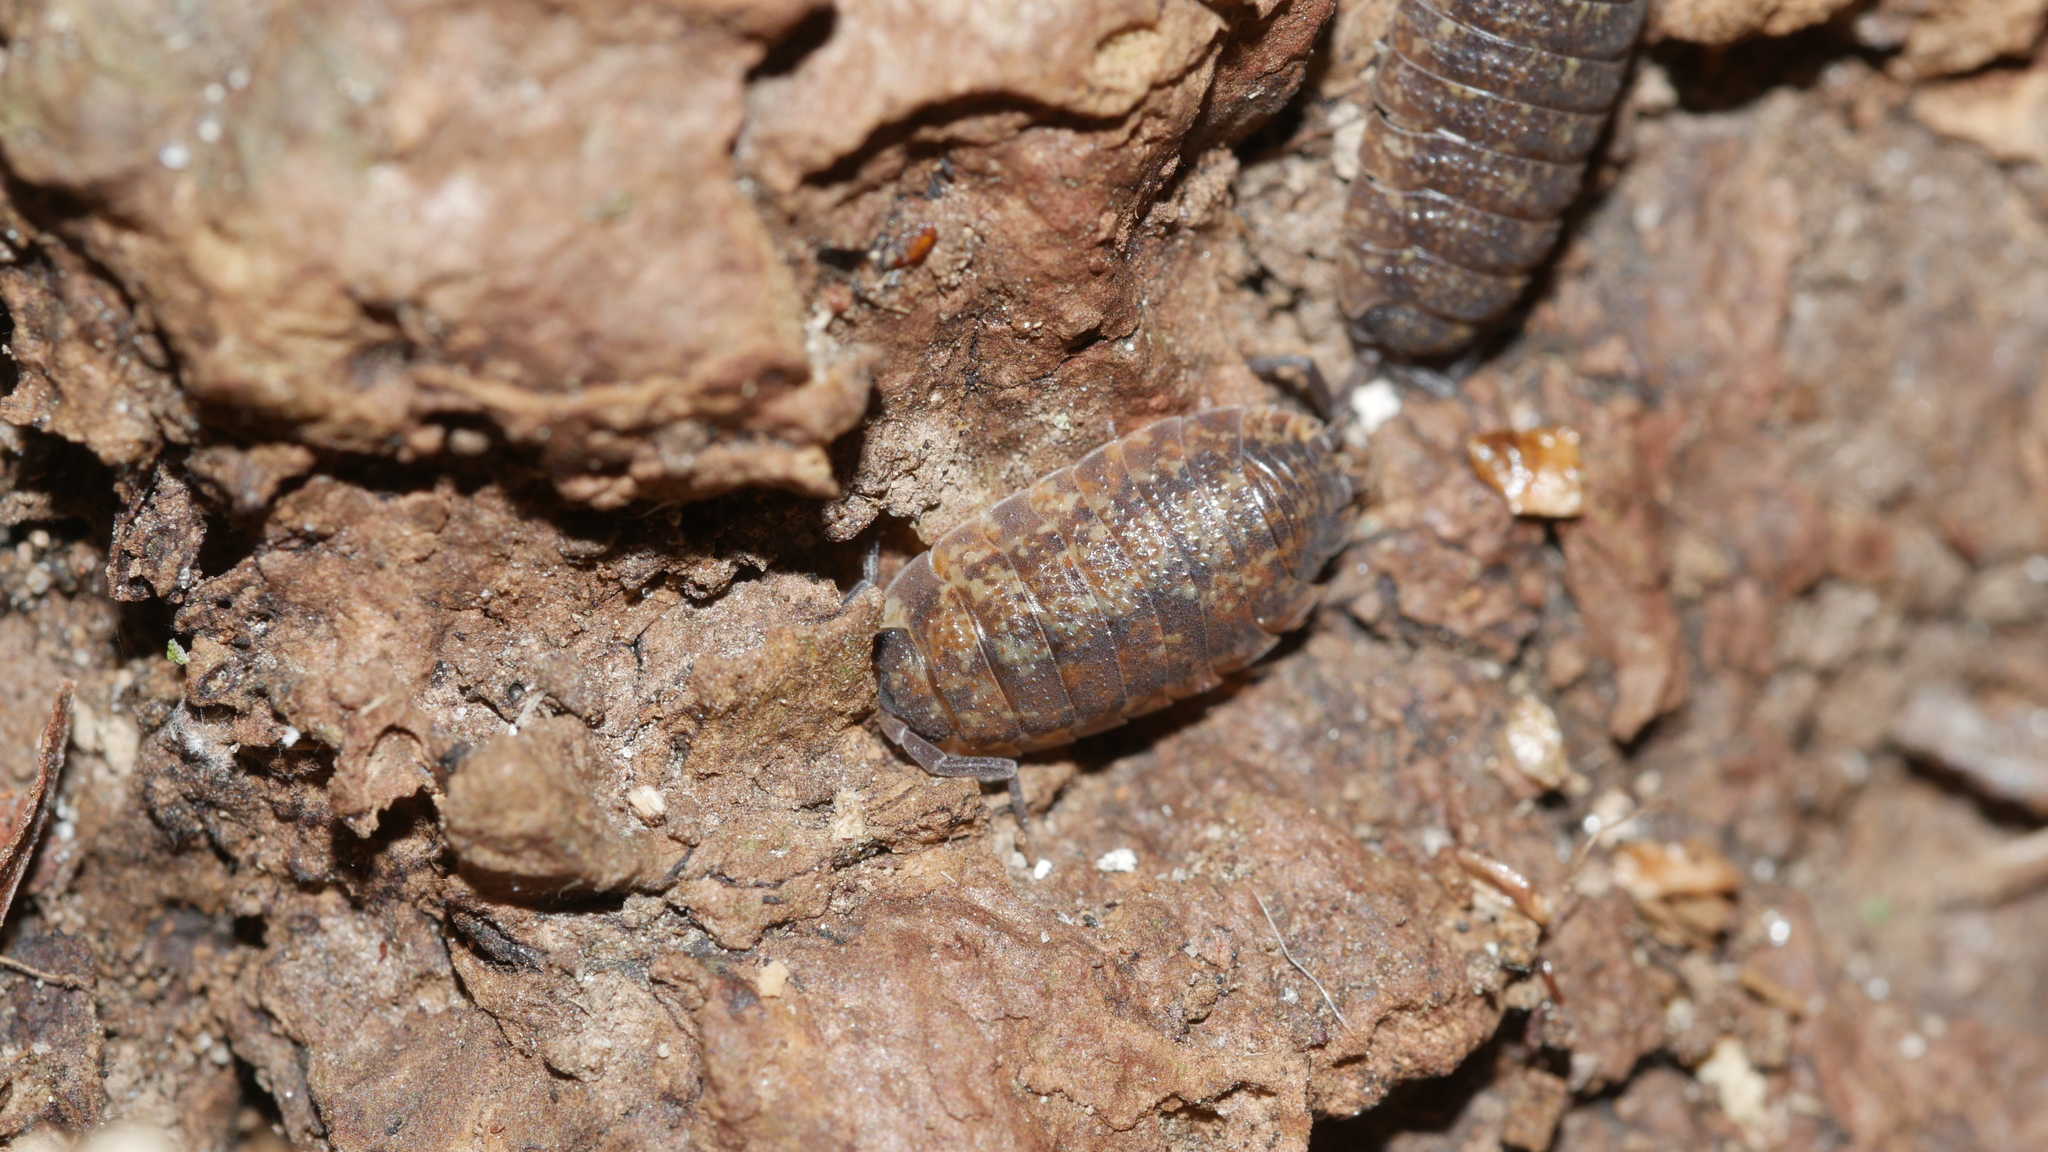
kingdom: Animalia
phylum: Arthropoda
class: Malacostraca
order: Isopoda
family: Porcellionidae
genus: Porcellio
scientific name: Porcellio scaber
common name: Common rough woodlouse
